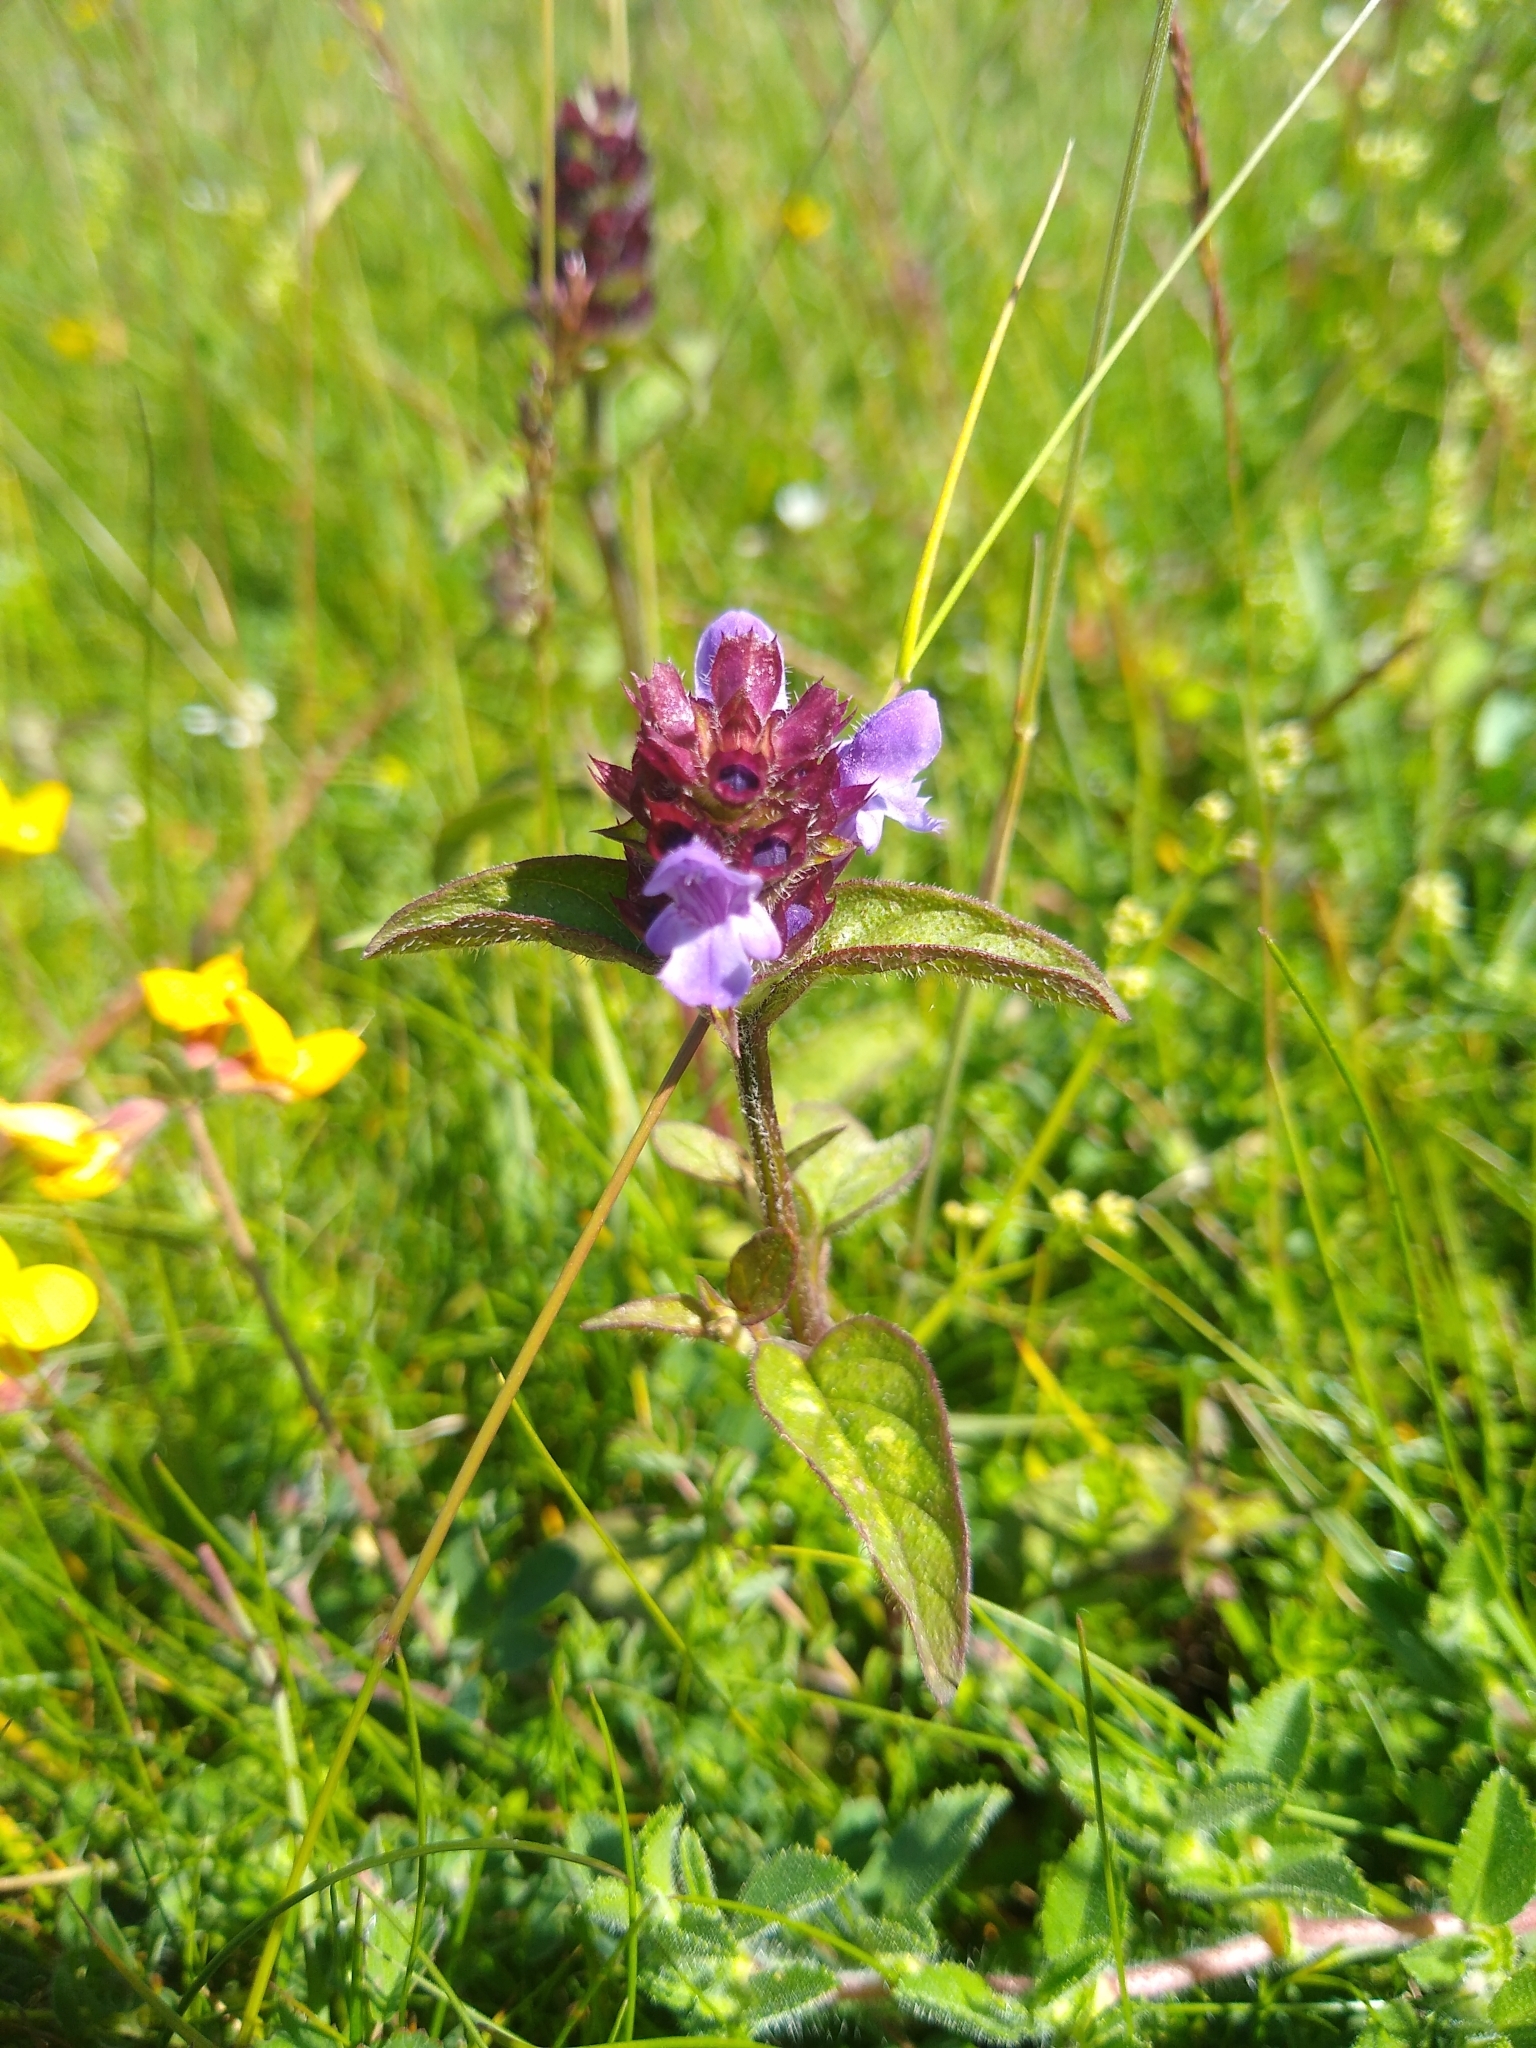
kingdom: Plantae
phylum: Tracheophyta
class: Magnoliopsida
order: Lamiales
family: Lamiaceae
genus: Prunella
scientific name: Prunella vulgaris
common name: Heal-all
